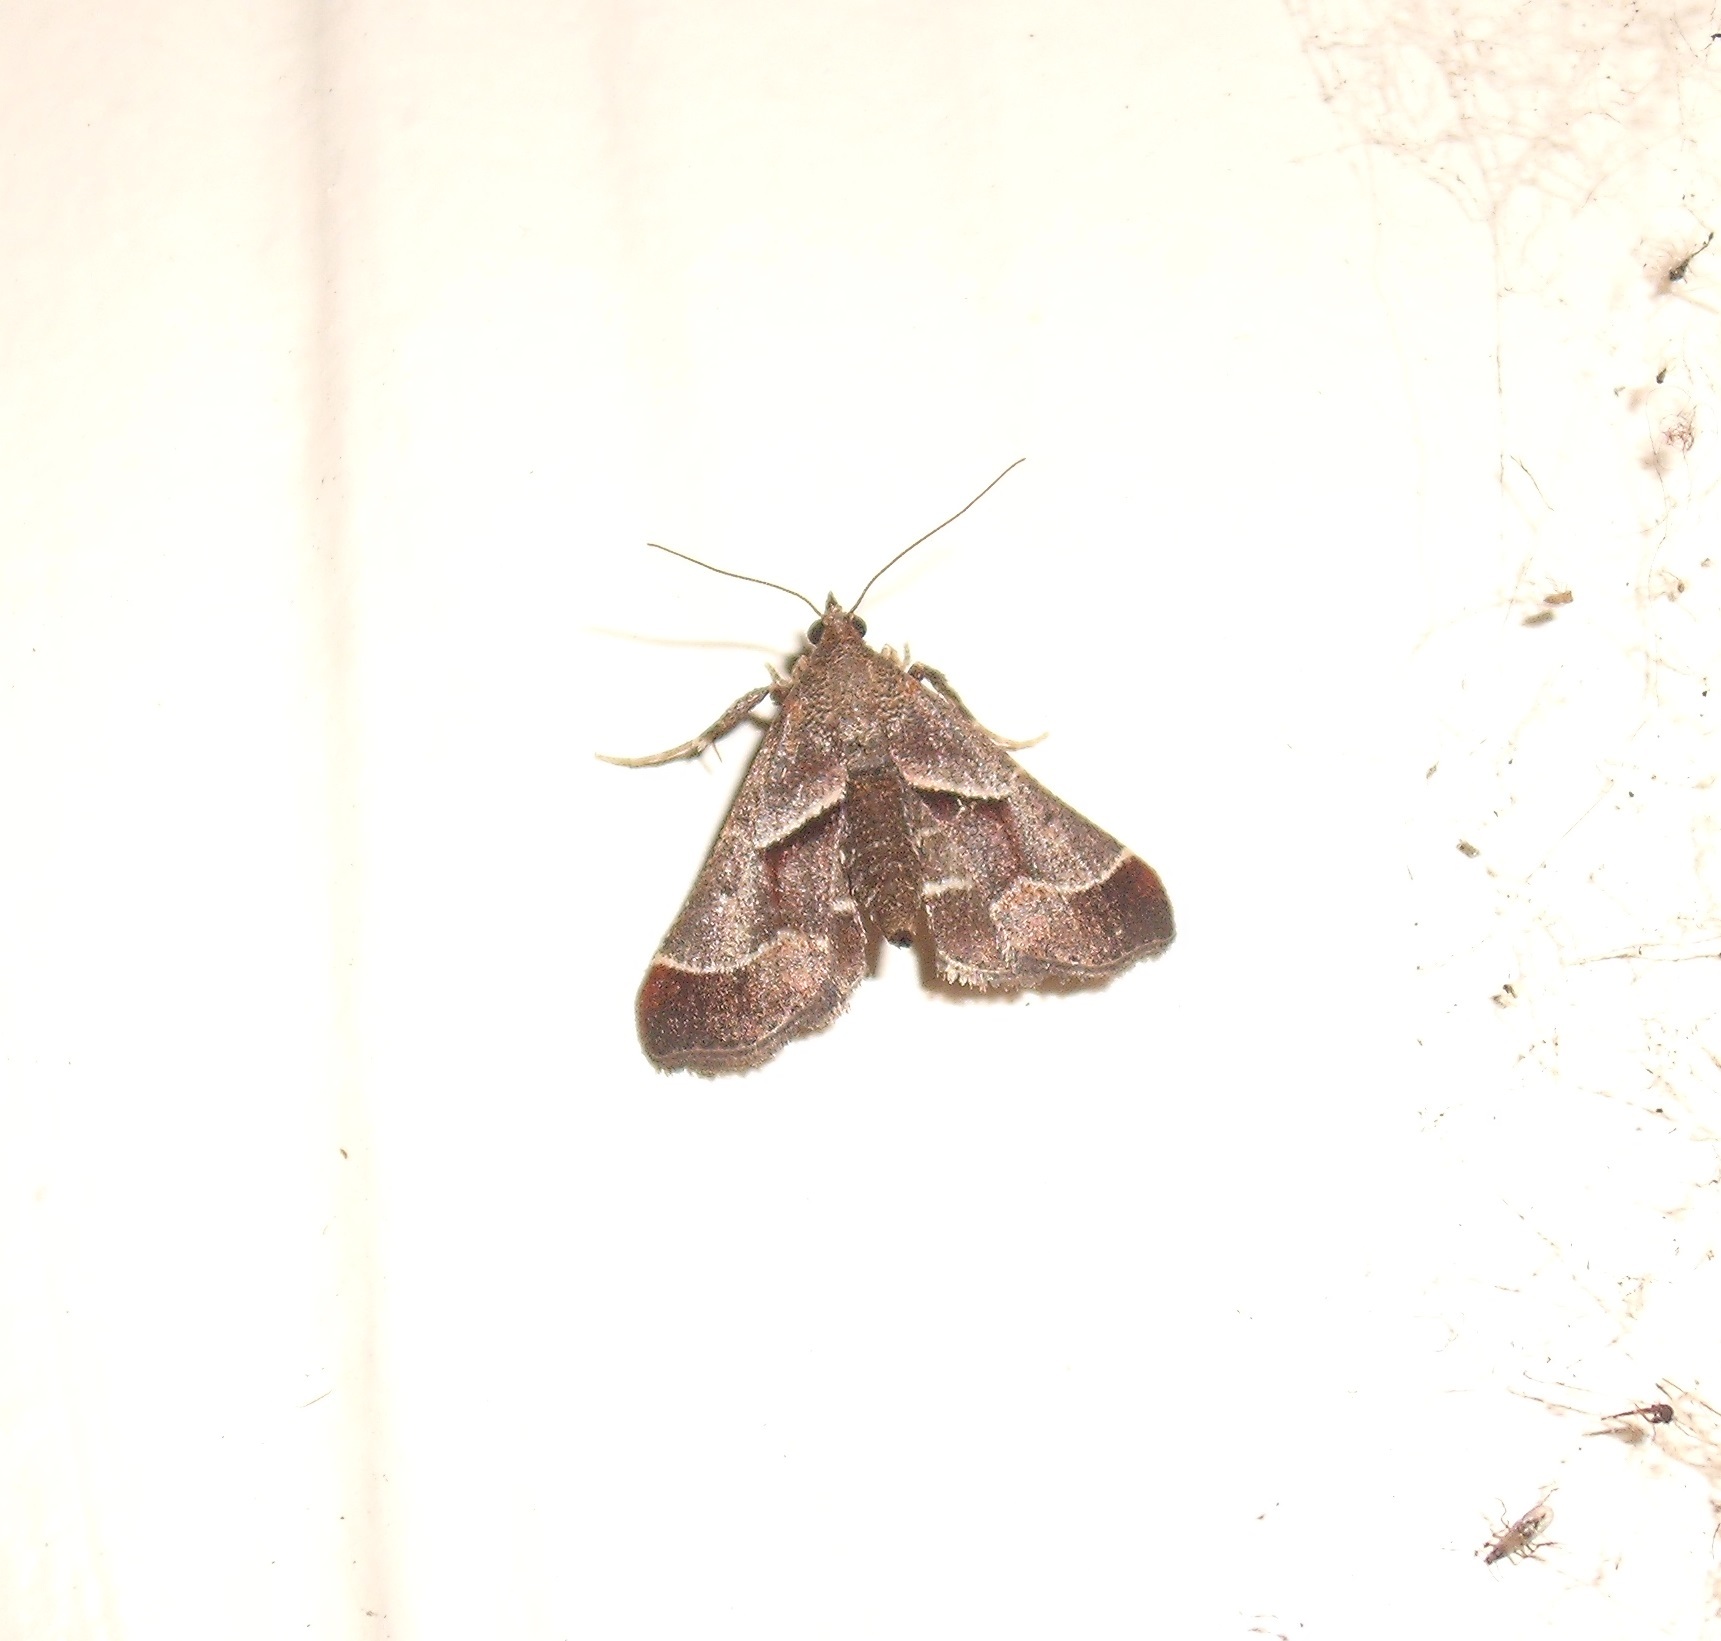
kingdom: Animalia
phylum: Arthropoda
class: Insecta
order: Lepidoptera
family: Pyralidae
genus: Gauna
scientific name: Gauna aegusalis
